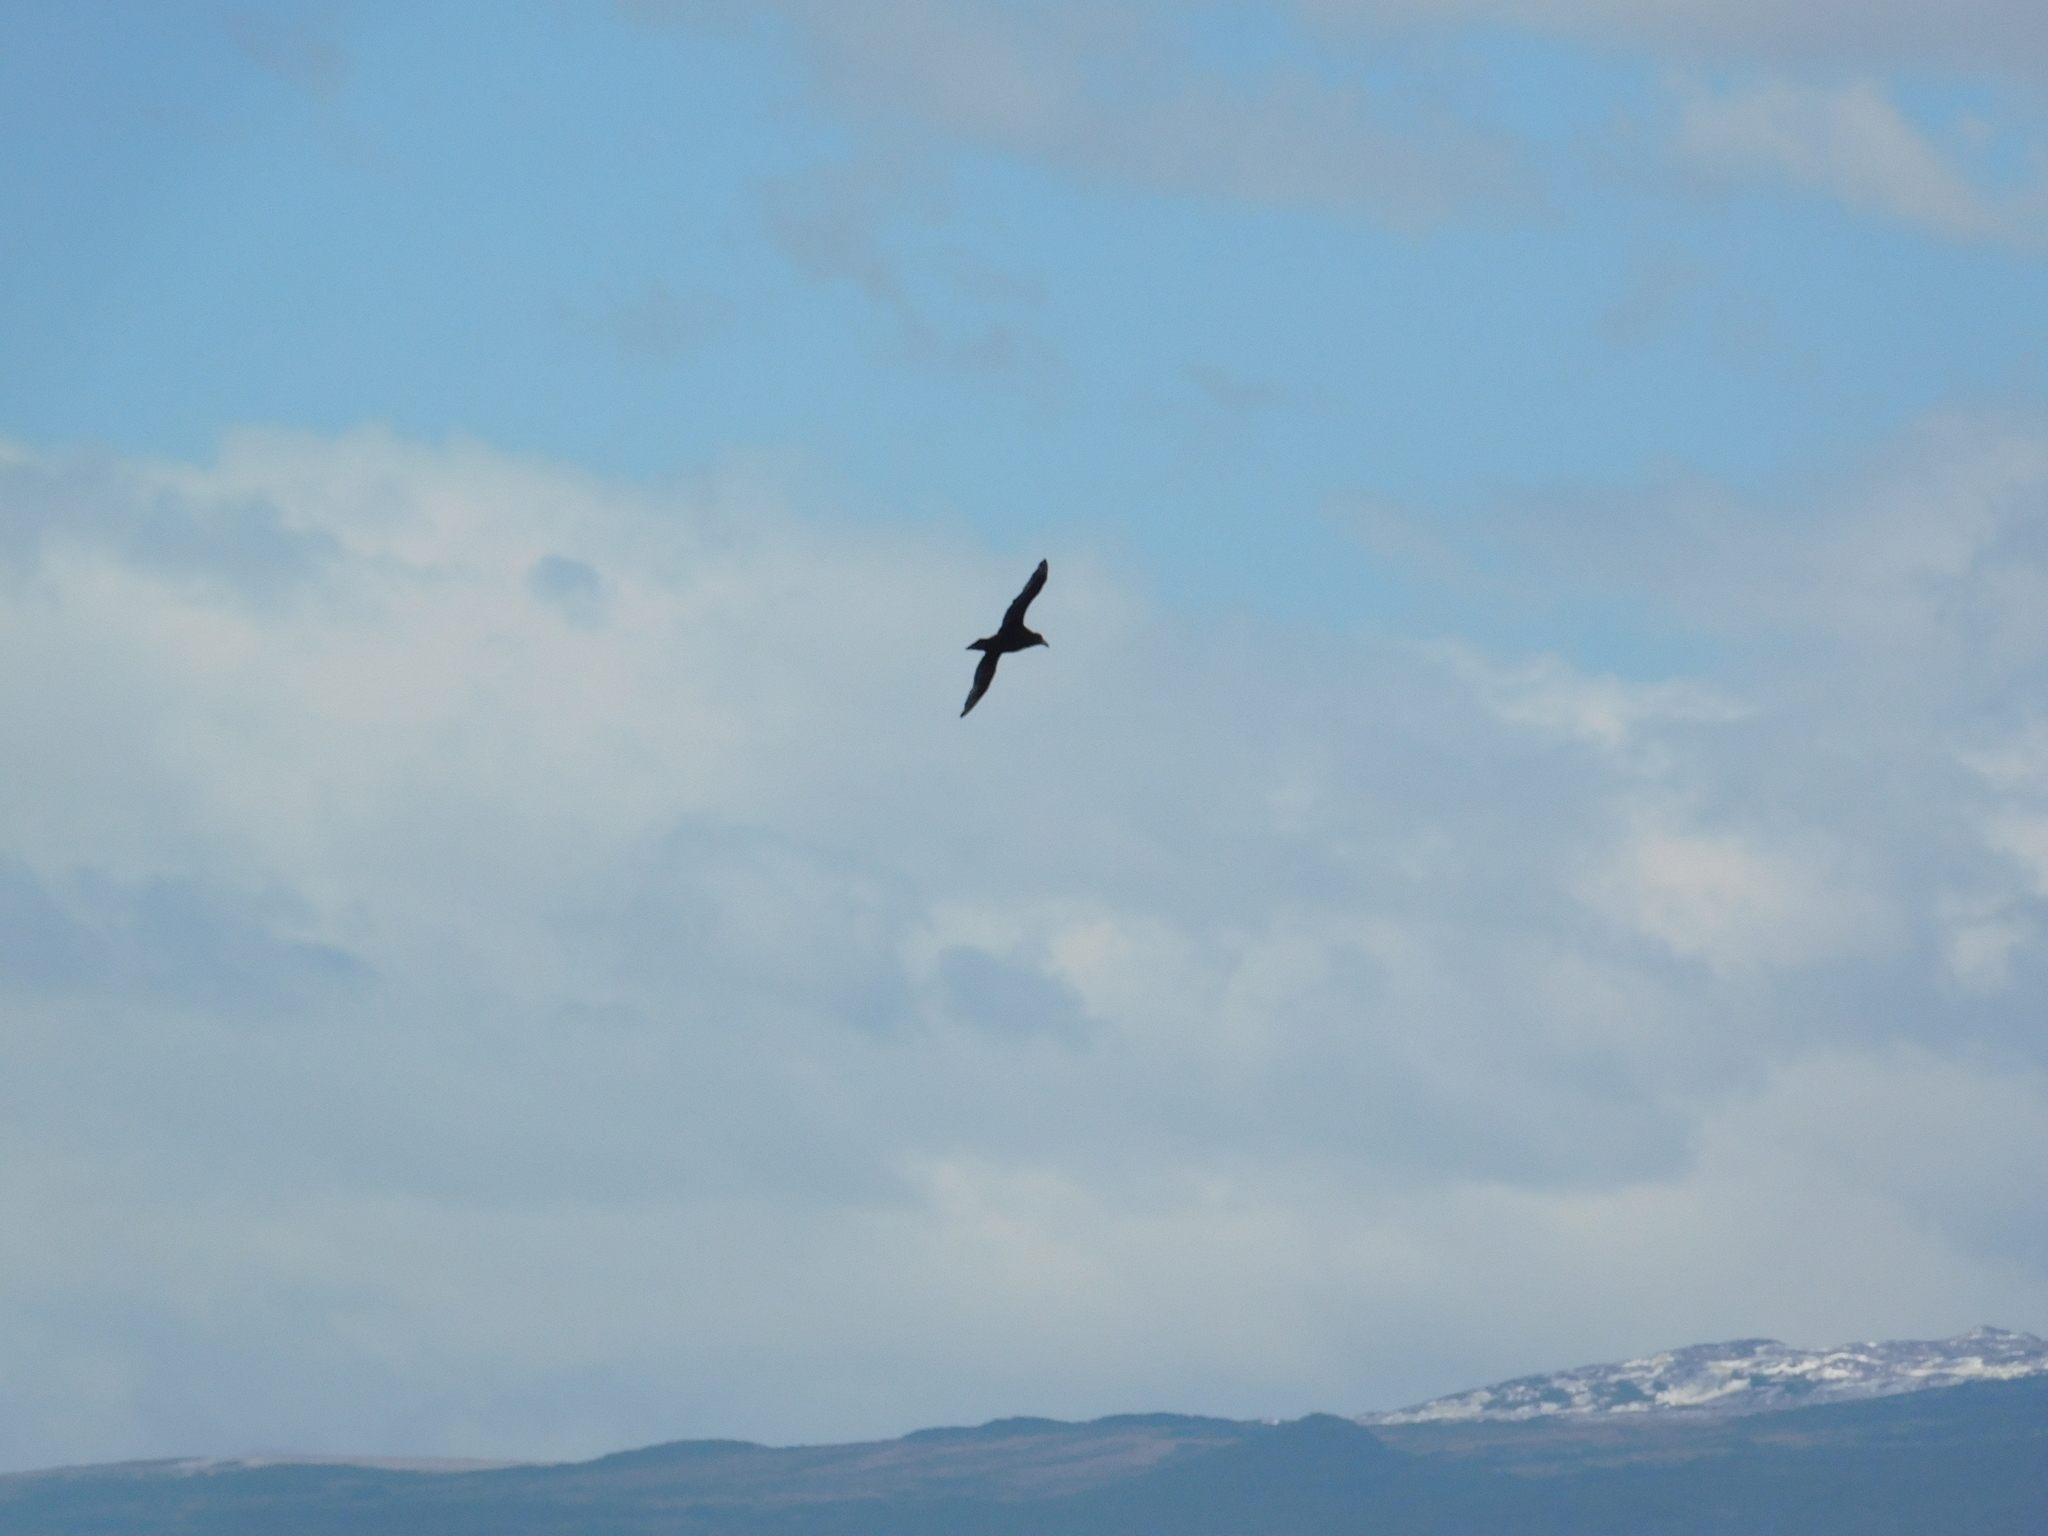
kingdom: Animalia
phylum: Chordata
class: Aves
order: Procellariiformes
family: Procellariidae
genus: Macronectes
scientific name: Macronectes giganteus
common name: Southern giant petrel
